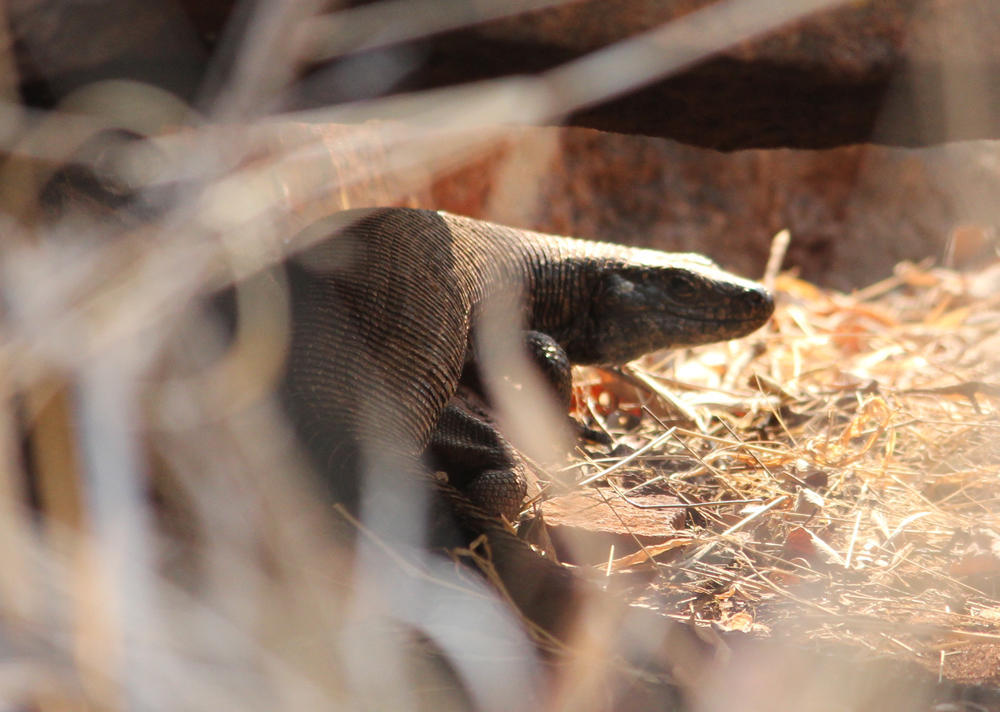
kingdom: Animalia
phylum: Chordata
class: Squamata
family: Gerrhosauridae
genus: Matobosaurus
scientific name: Matobosaurus validus
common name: Common giant plated lizard
